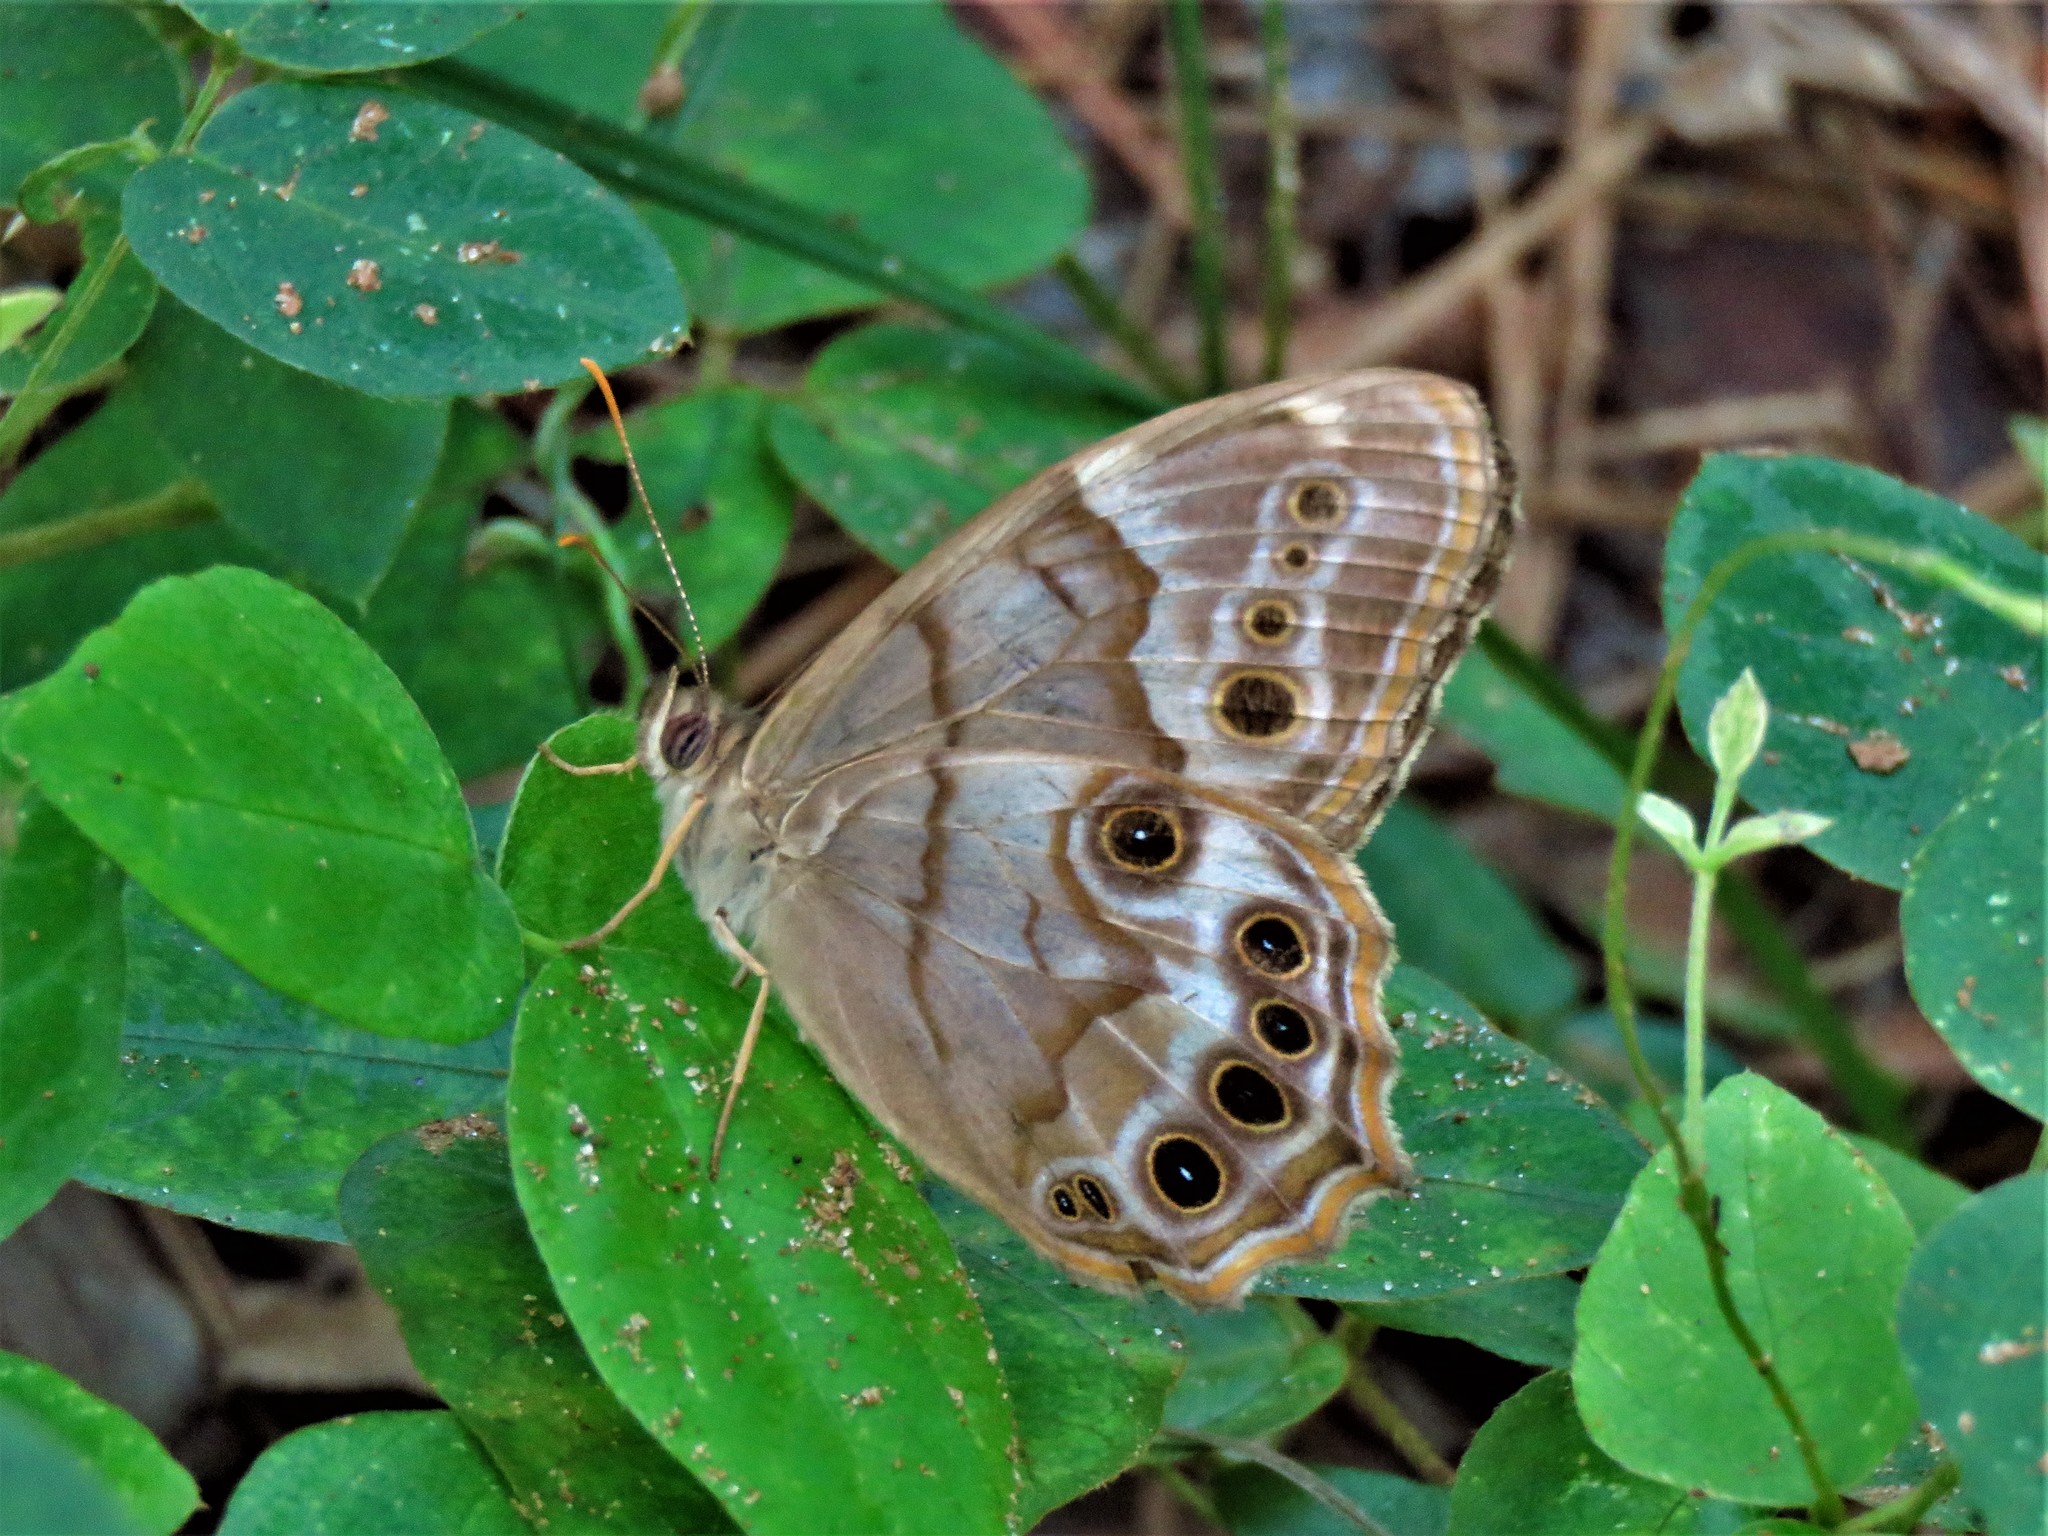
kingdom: Animalia
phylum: Arthropoda
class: Insecta
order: Lepidoptera
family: Nymphalidae
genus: Enodia
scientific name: Enodia portlandia
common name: Southern pearly-eye
